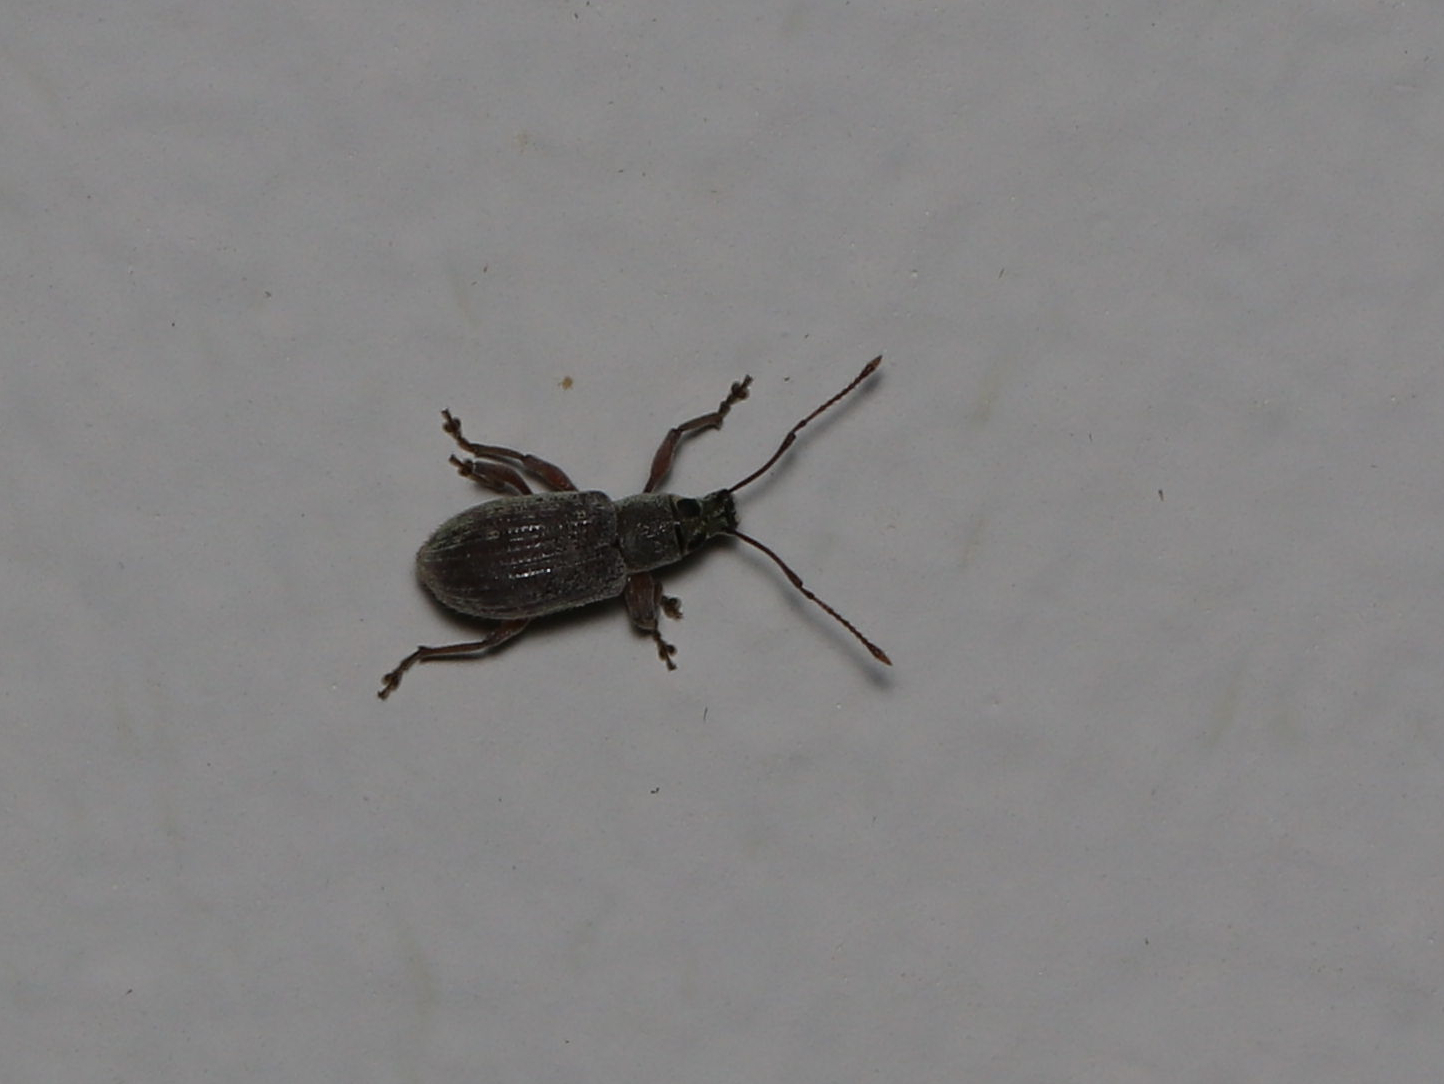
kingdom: Animalia
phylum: Arthropoda
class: Insecta
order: Coleoptera
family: Curculionidae
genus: Cyrtepistomus
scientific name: Cyrtepistomus castaneus
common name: Weevil
